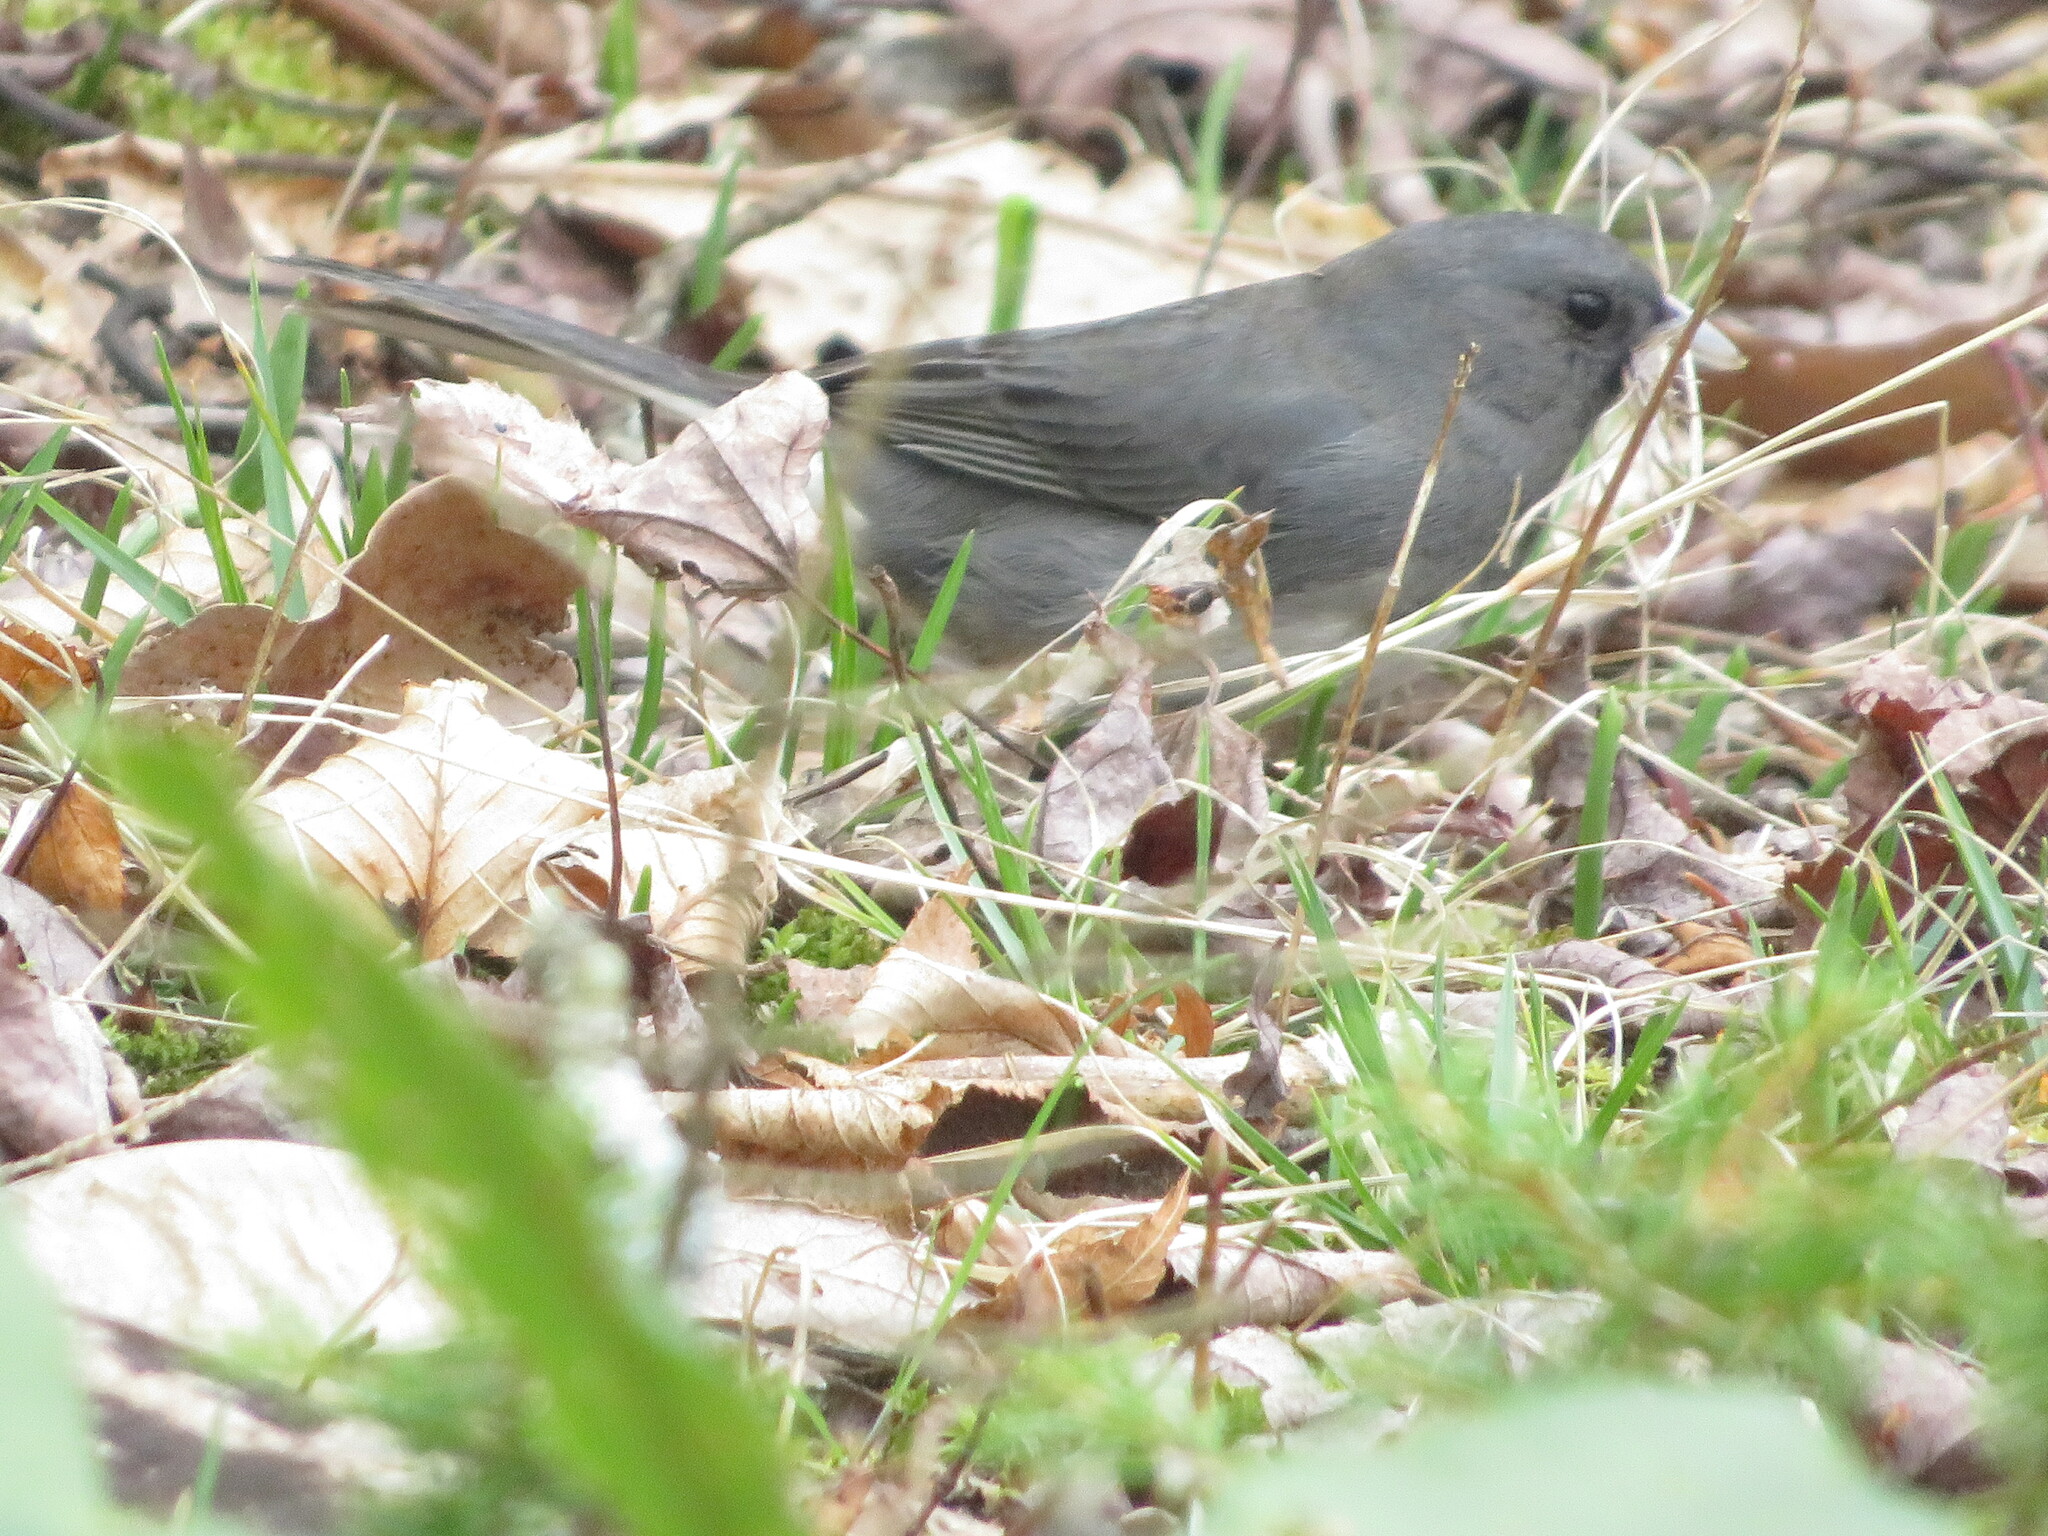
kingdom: Animalia
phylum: Chordata
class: Aves
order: Passeriformes
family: Passerellidae
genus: Junco
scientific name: Junco hyemalis
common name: Dark-eyed junco
